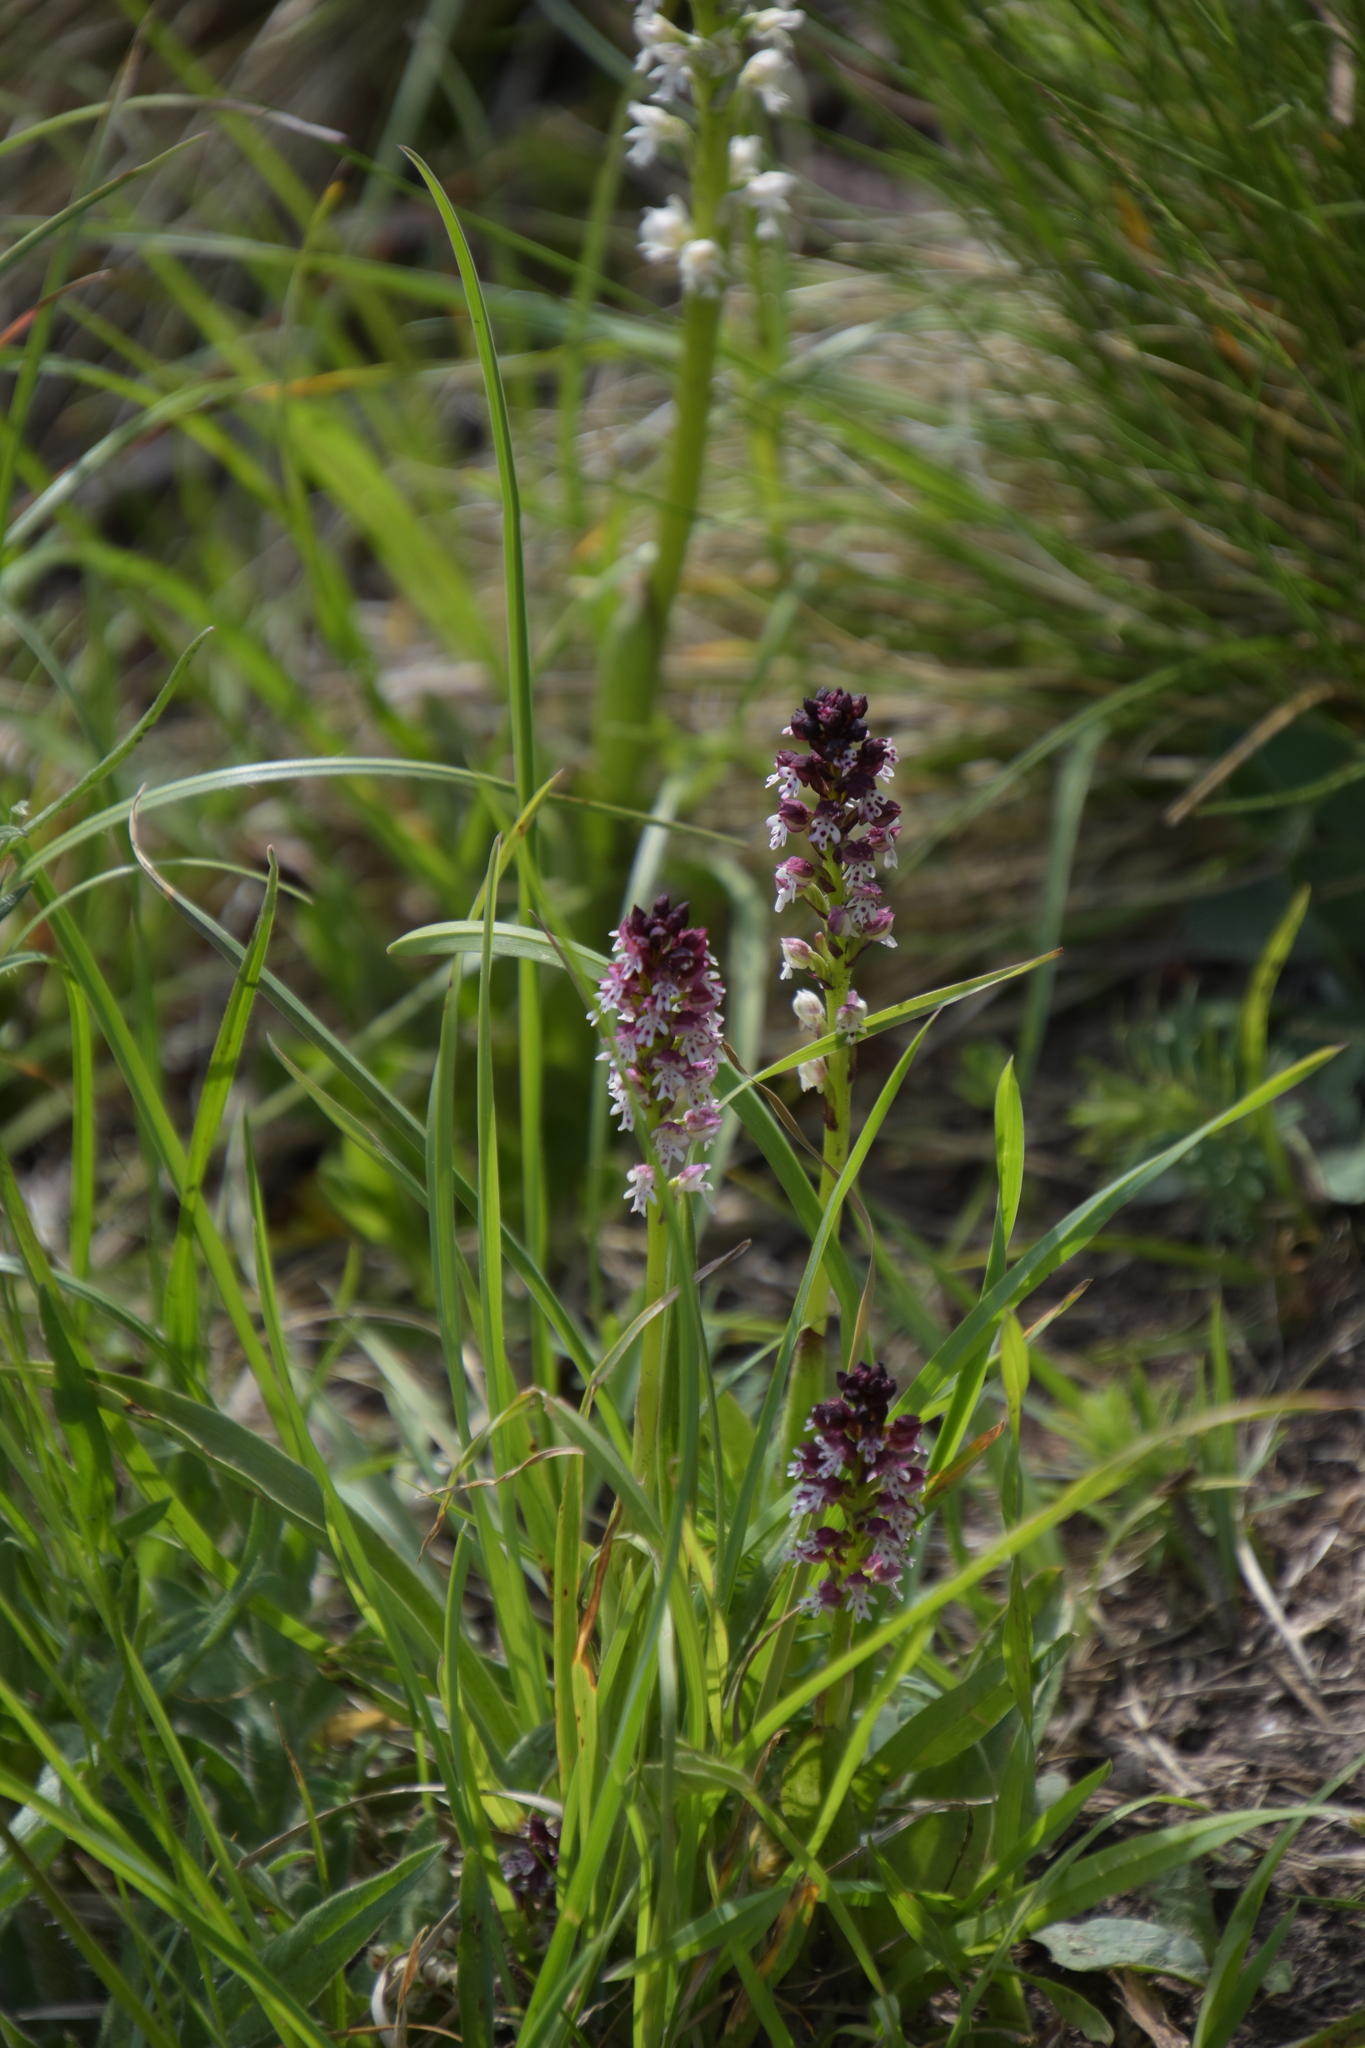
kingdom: Plantae
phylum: Tracheophyta
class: Liliopsida
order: Asparagales
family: Orchidaceae
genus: Neotinea
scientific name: Neotinea ustulata
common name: Burnt orchid
